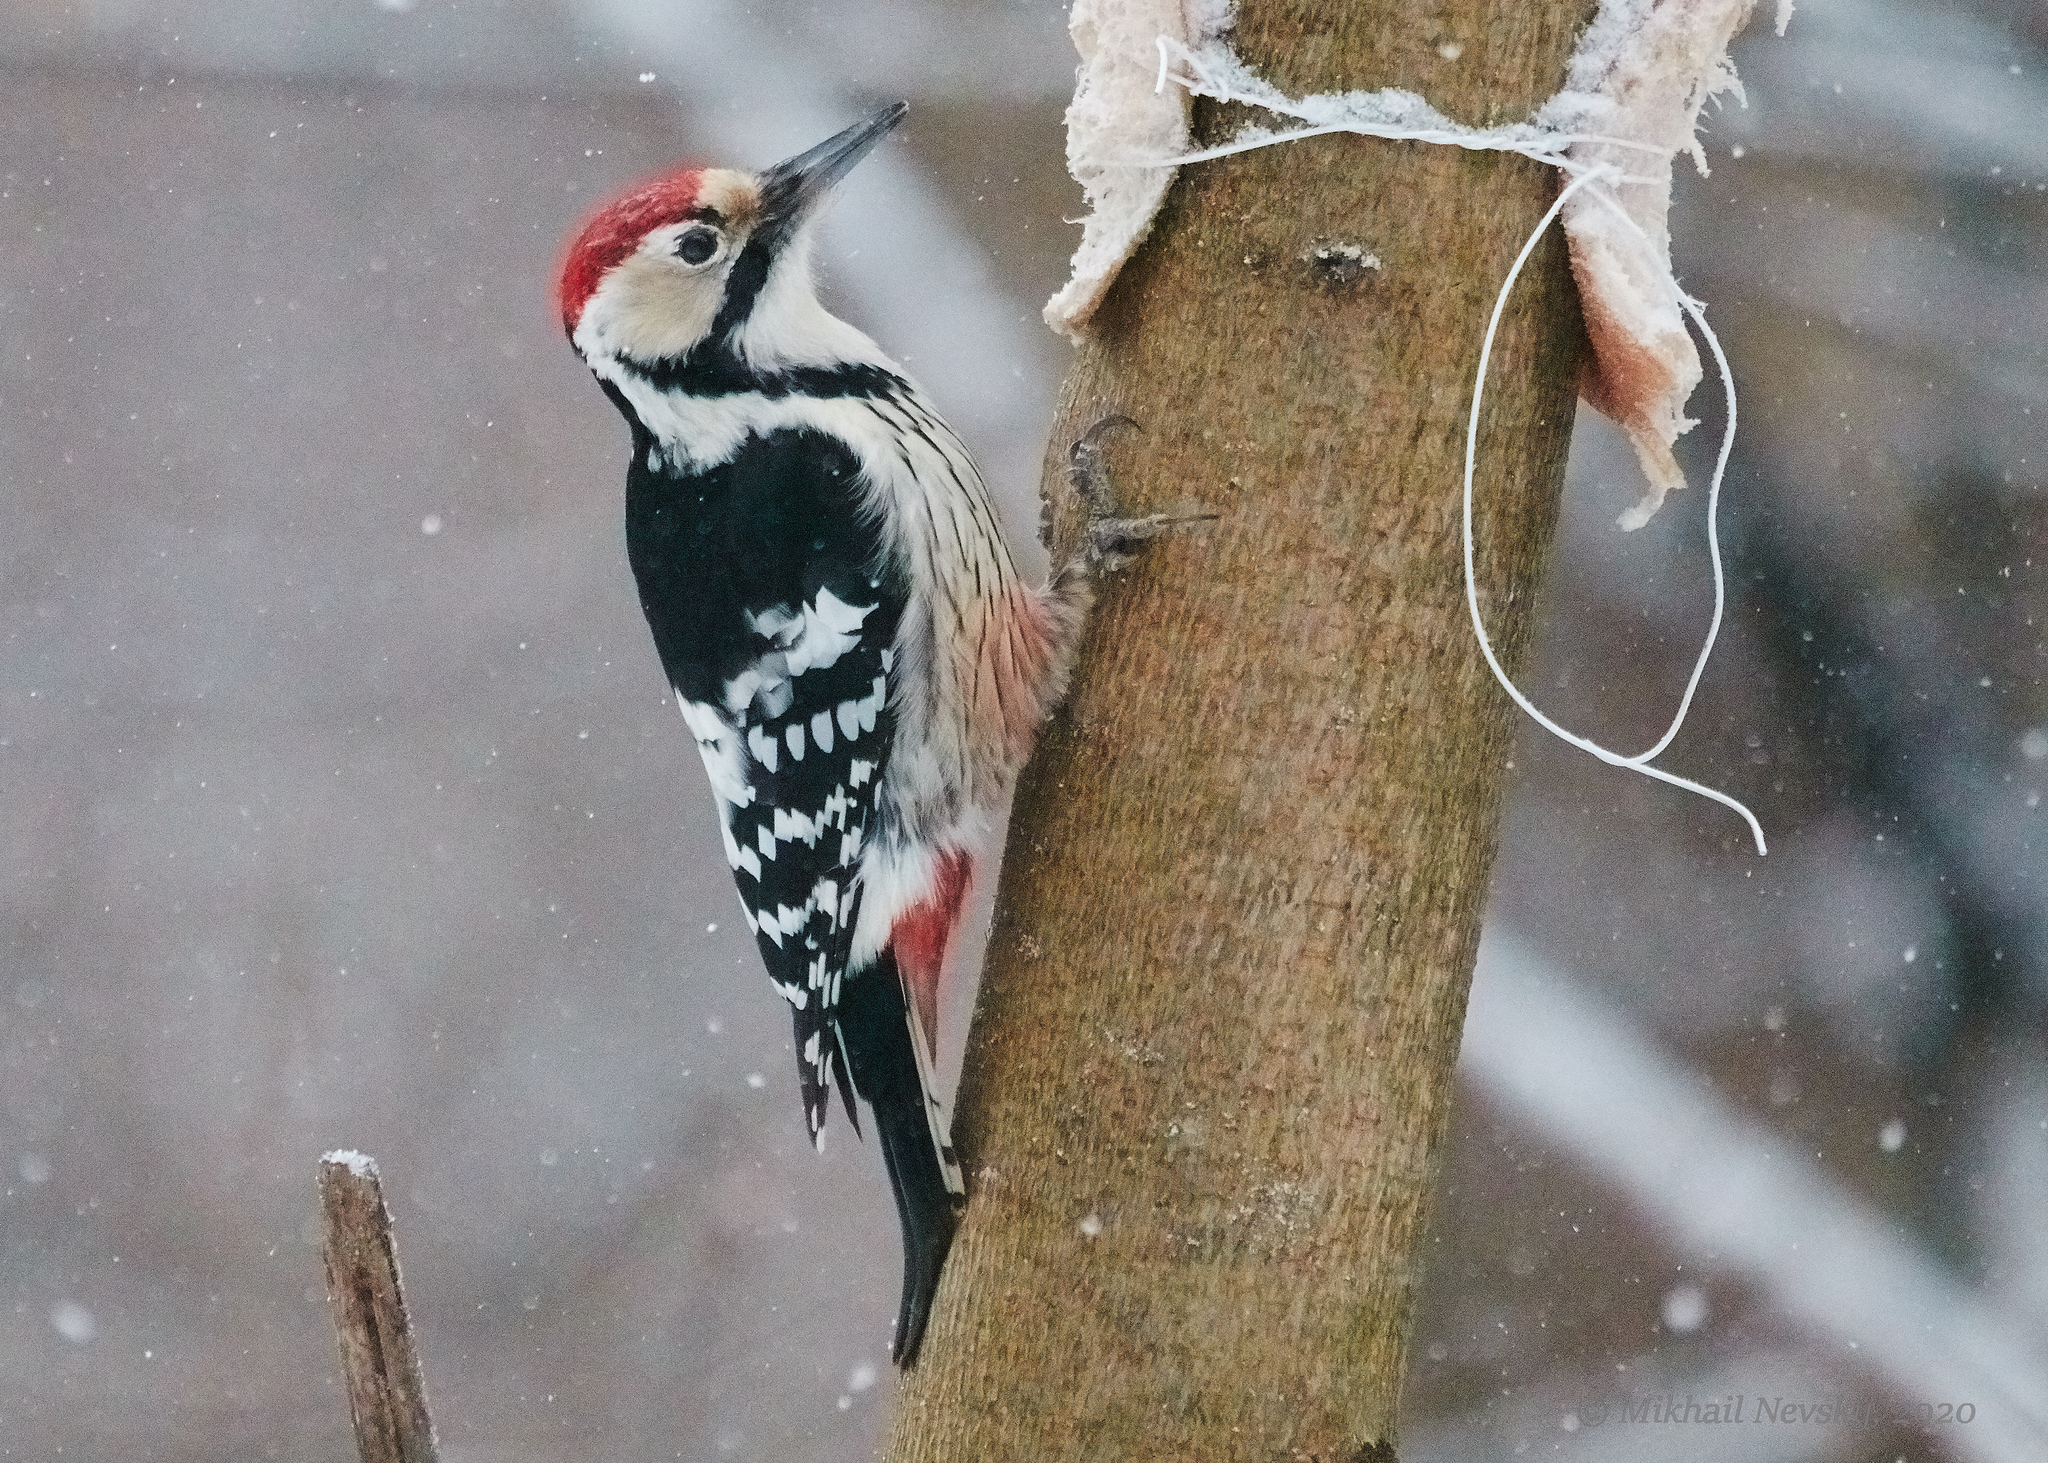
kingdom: Animalia
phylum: Chordata
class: Aves
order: Piciformes
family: Picidae
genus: Dendrocopos
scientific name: Dendrocopos leucotos
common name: White-backed woodpecker
